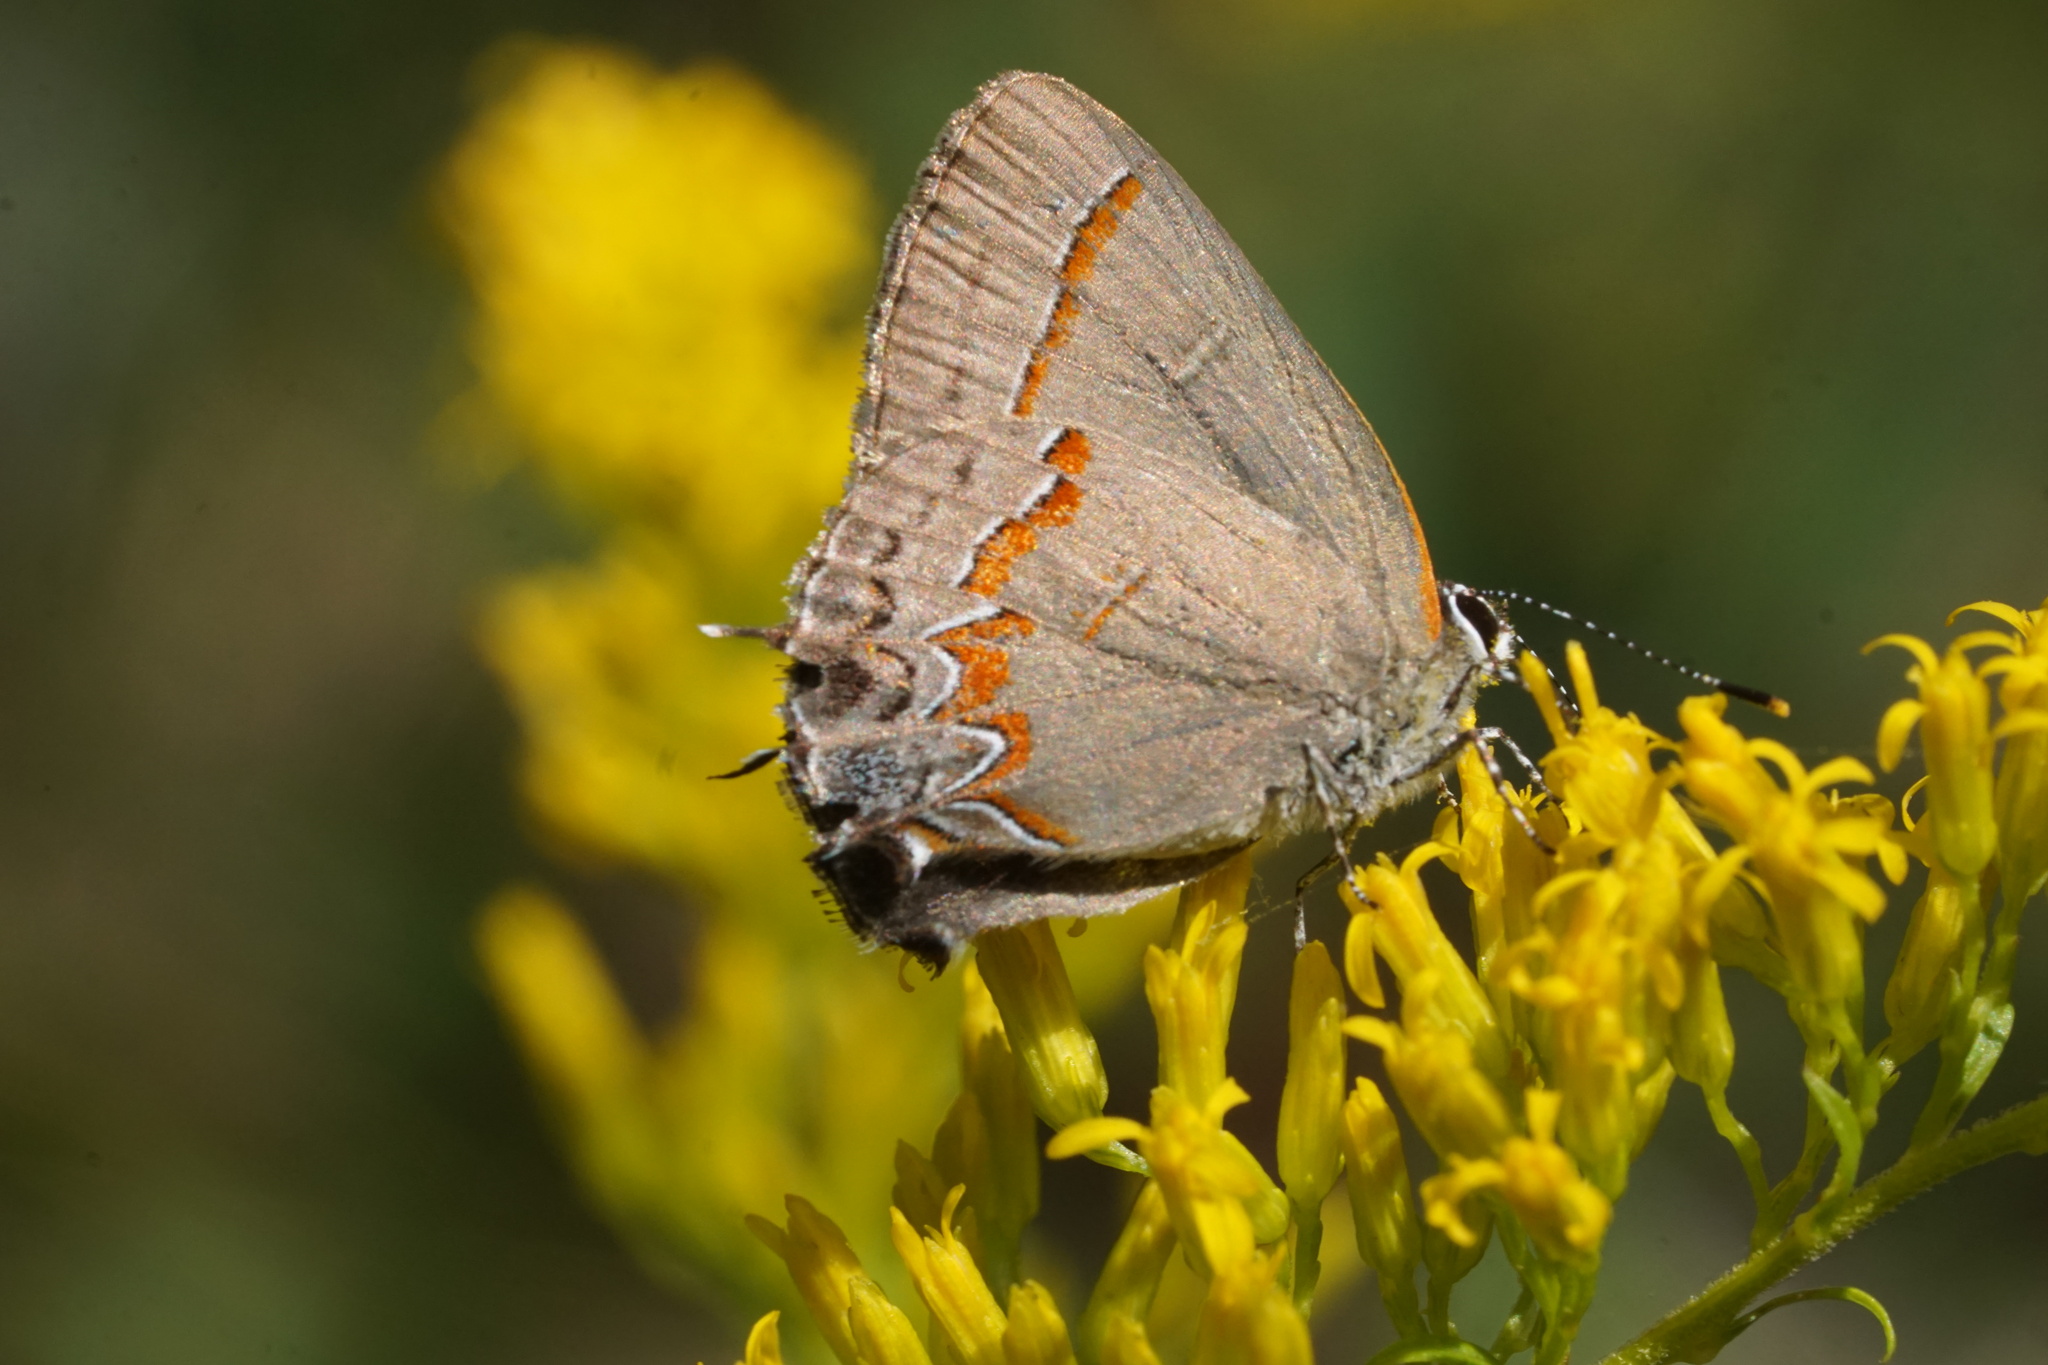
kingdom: Animalia
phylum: Arthropoda
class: Insecta
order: Lepidoptera
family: Lycaenidae
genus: Calycopis
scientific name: Calycopis cecrops
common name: Red-banded hairstreak
